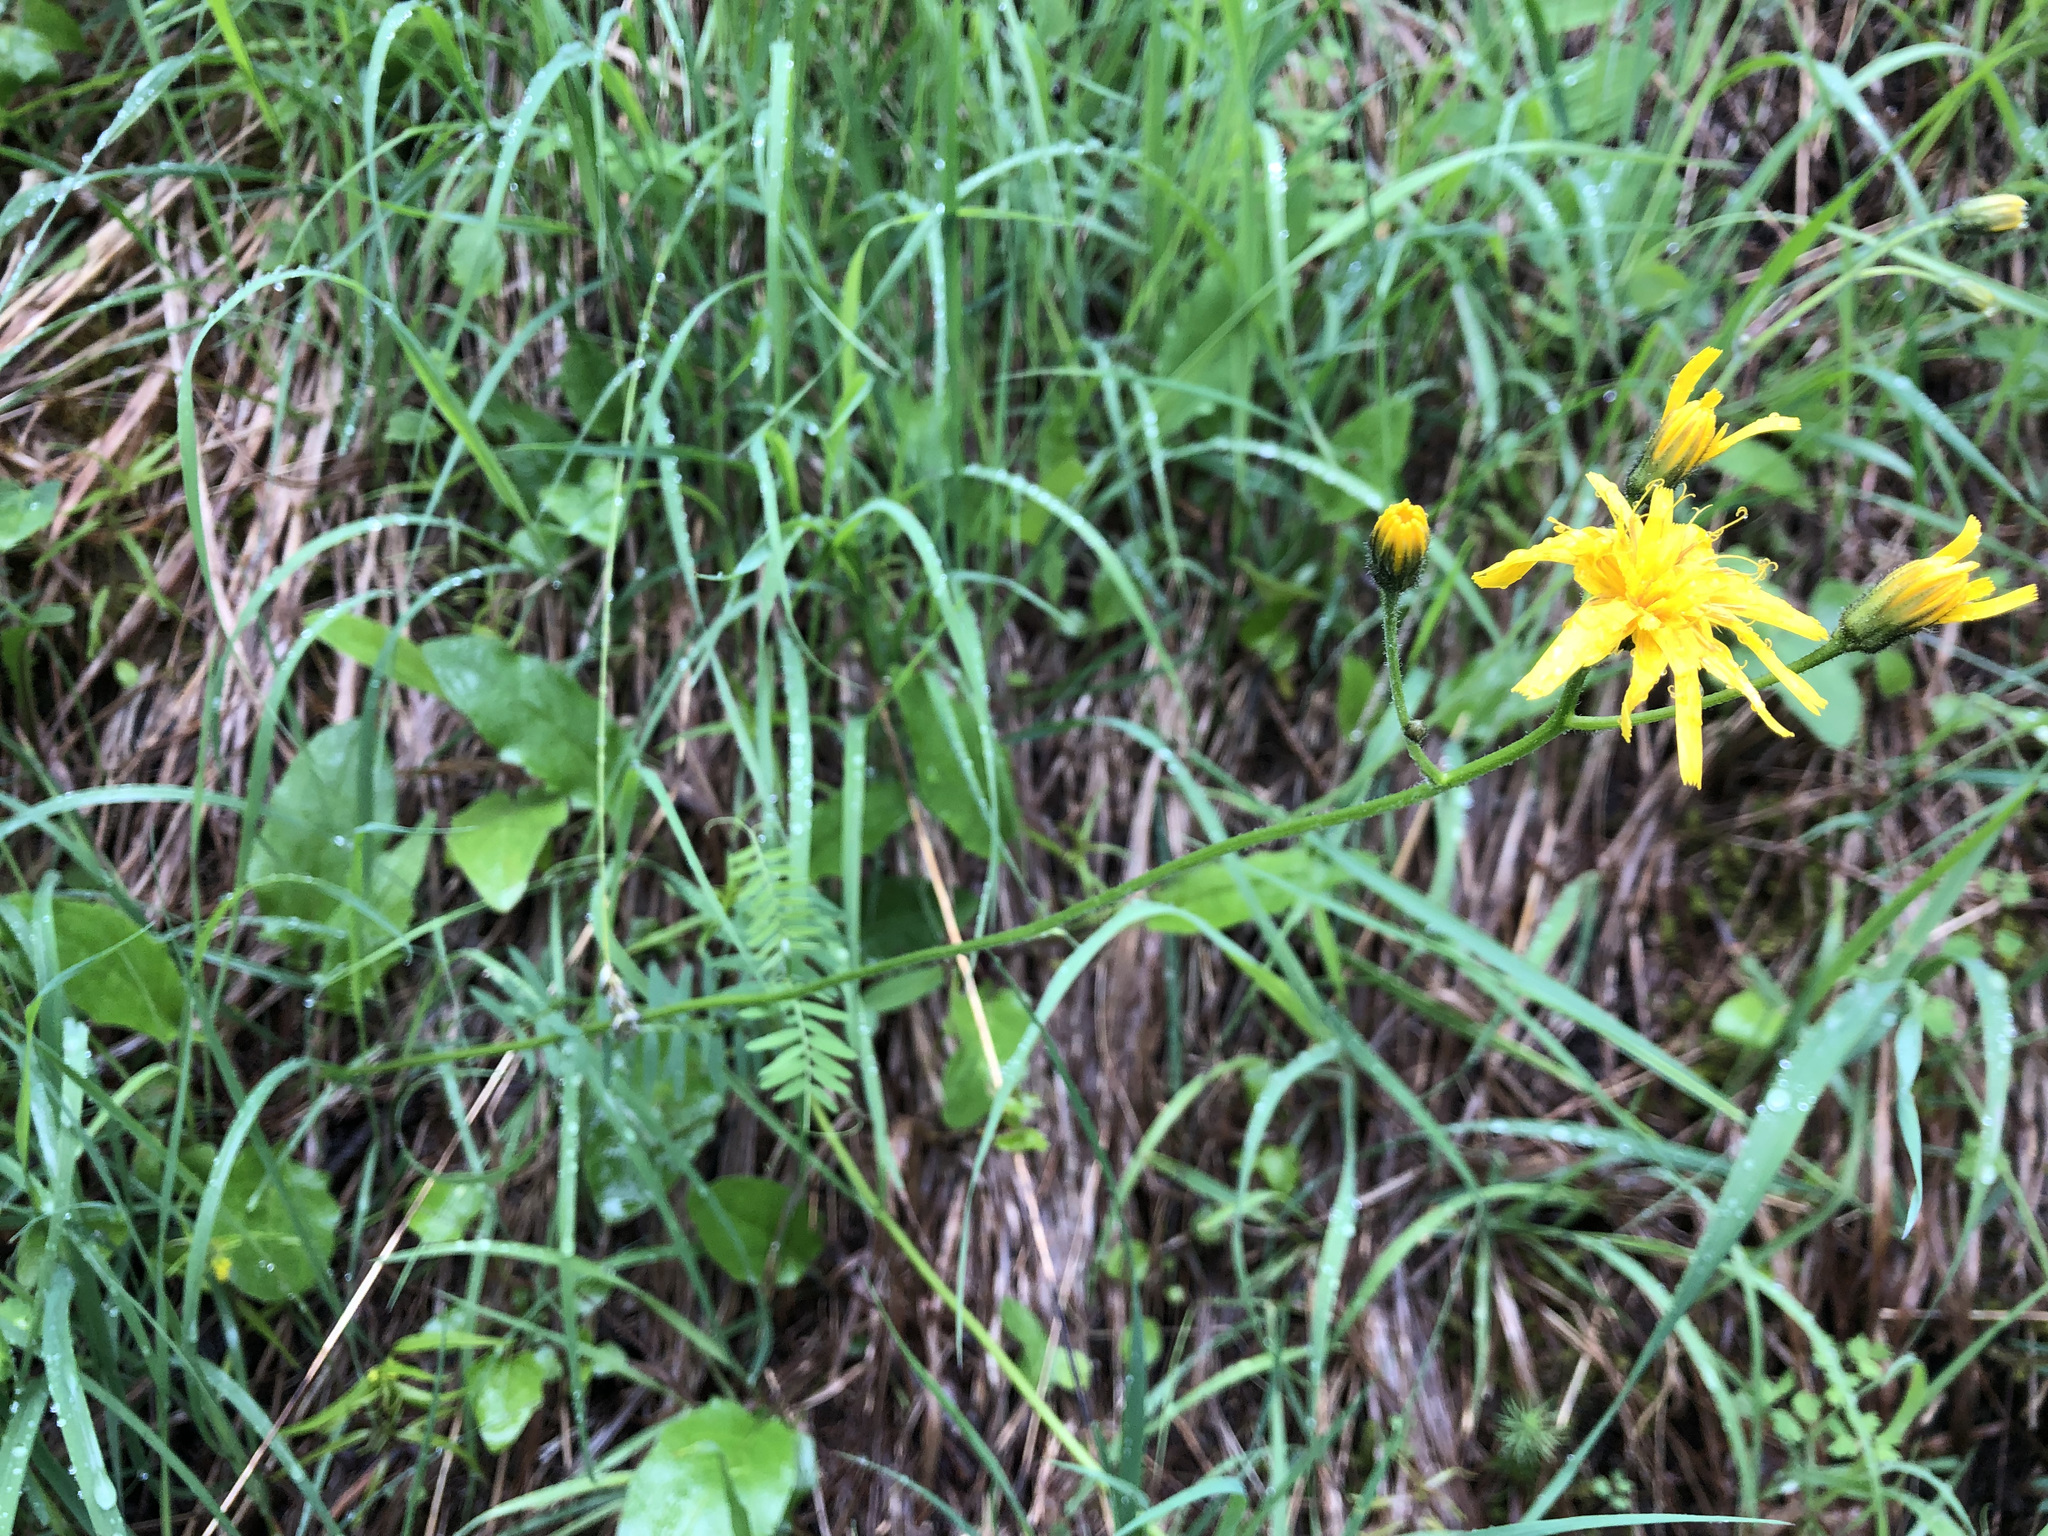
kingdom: Plantae
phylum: Tracheophyta
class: Magnoliopsida
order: Asterales
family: Asteraceae
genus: Hieracium
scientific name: Hieracium murorum
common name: Wall hawkweed
